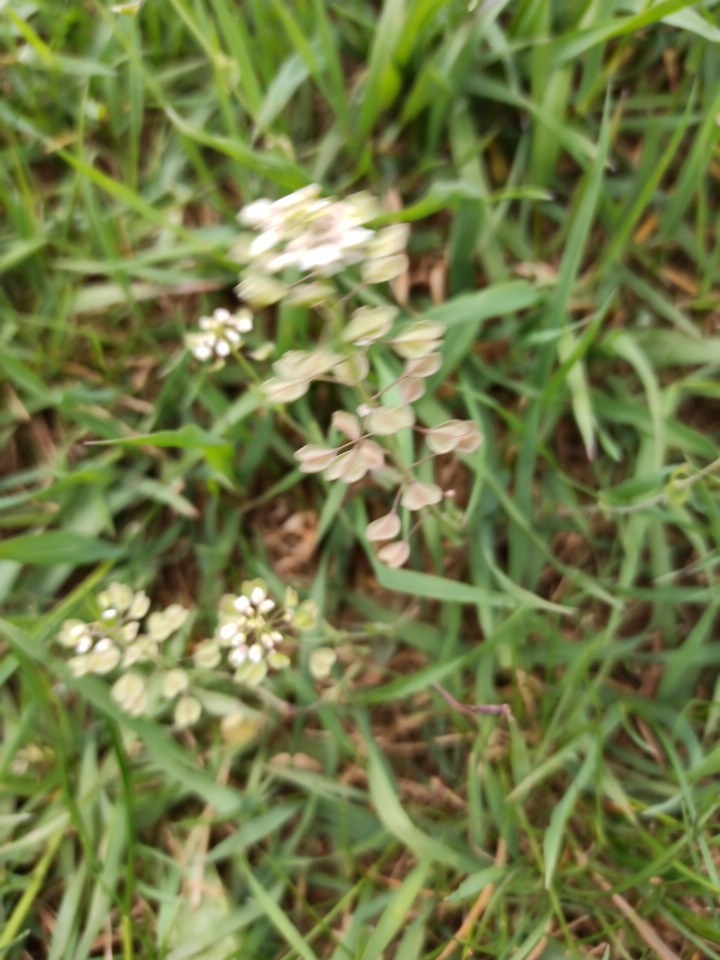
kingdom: Plantae
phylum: Tracheophyta
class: Magnoliopsida
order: Brassicales
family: Brassicaceae
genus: Noccaea
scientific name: Noccaea perfoliata
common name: Perfoliate pennycress
